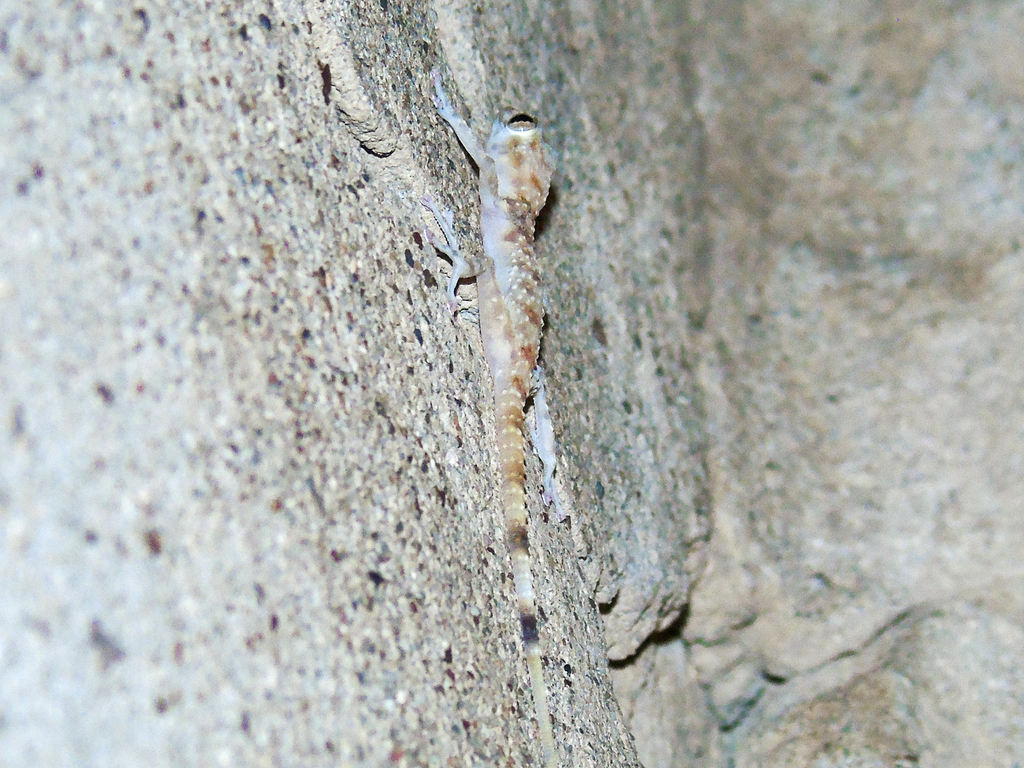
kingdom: Animalia
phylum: Chordata
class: Squamata
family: Phyllodactylidae
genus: Asaccus
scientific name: Asaccus elisae
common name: Leaf-toed gecko
